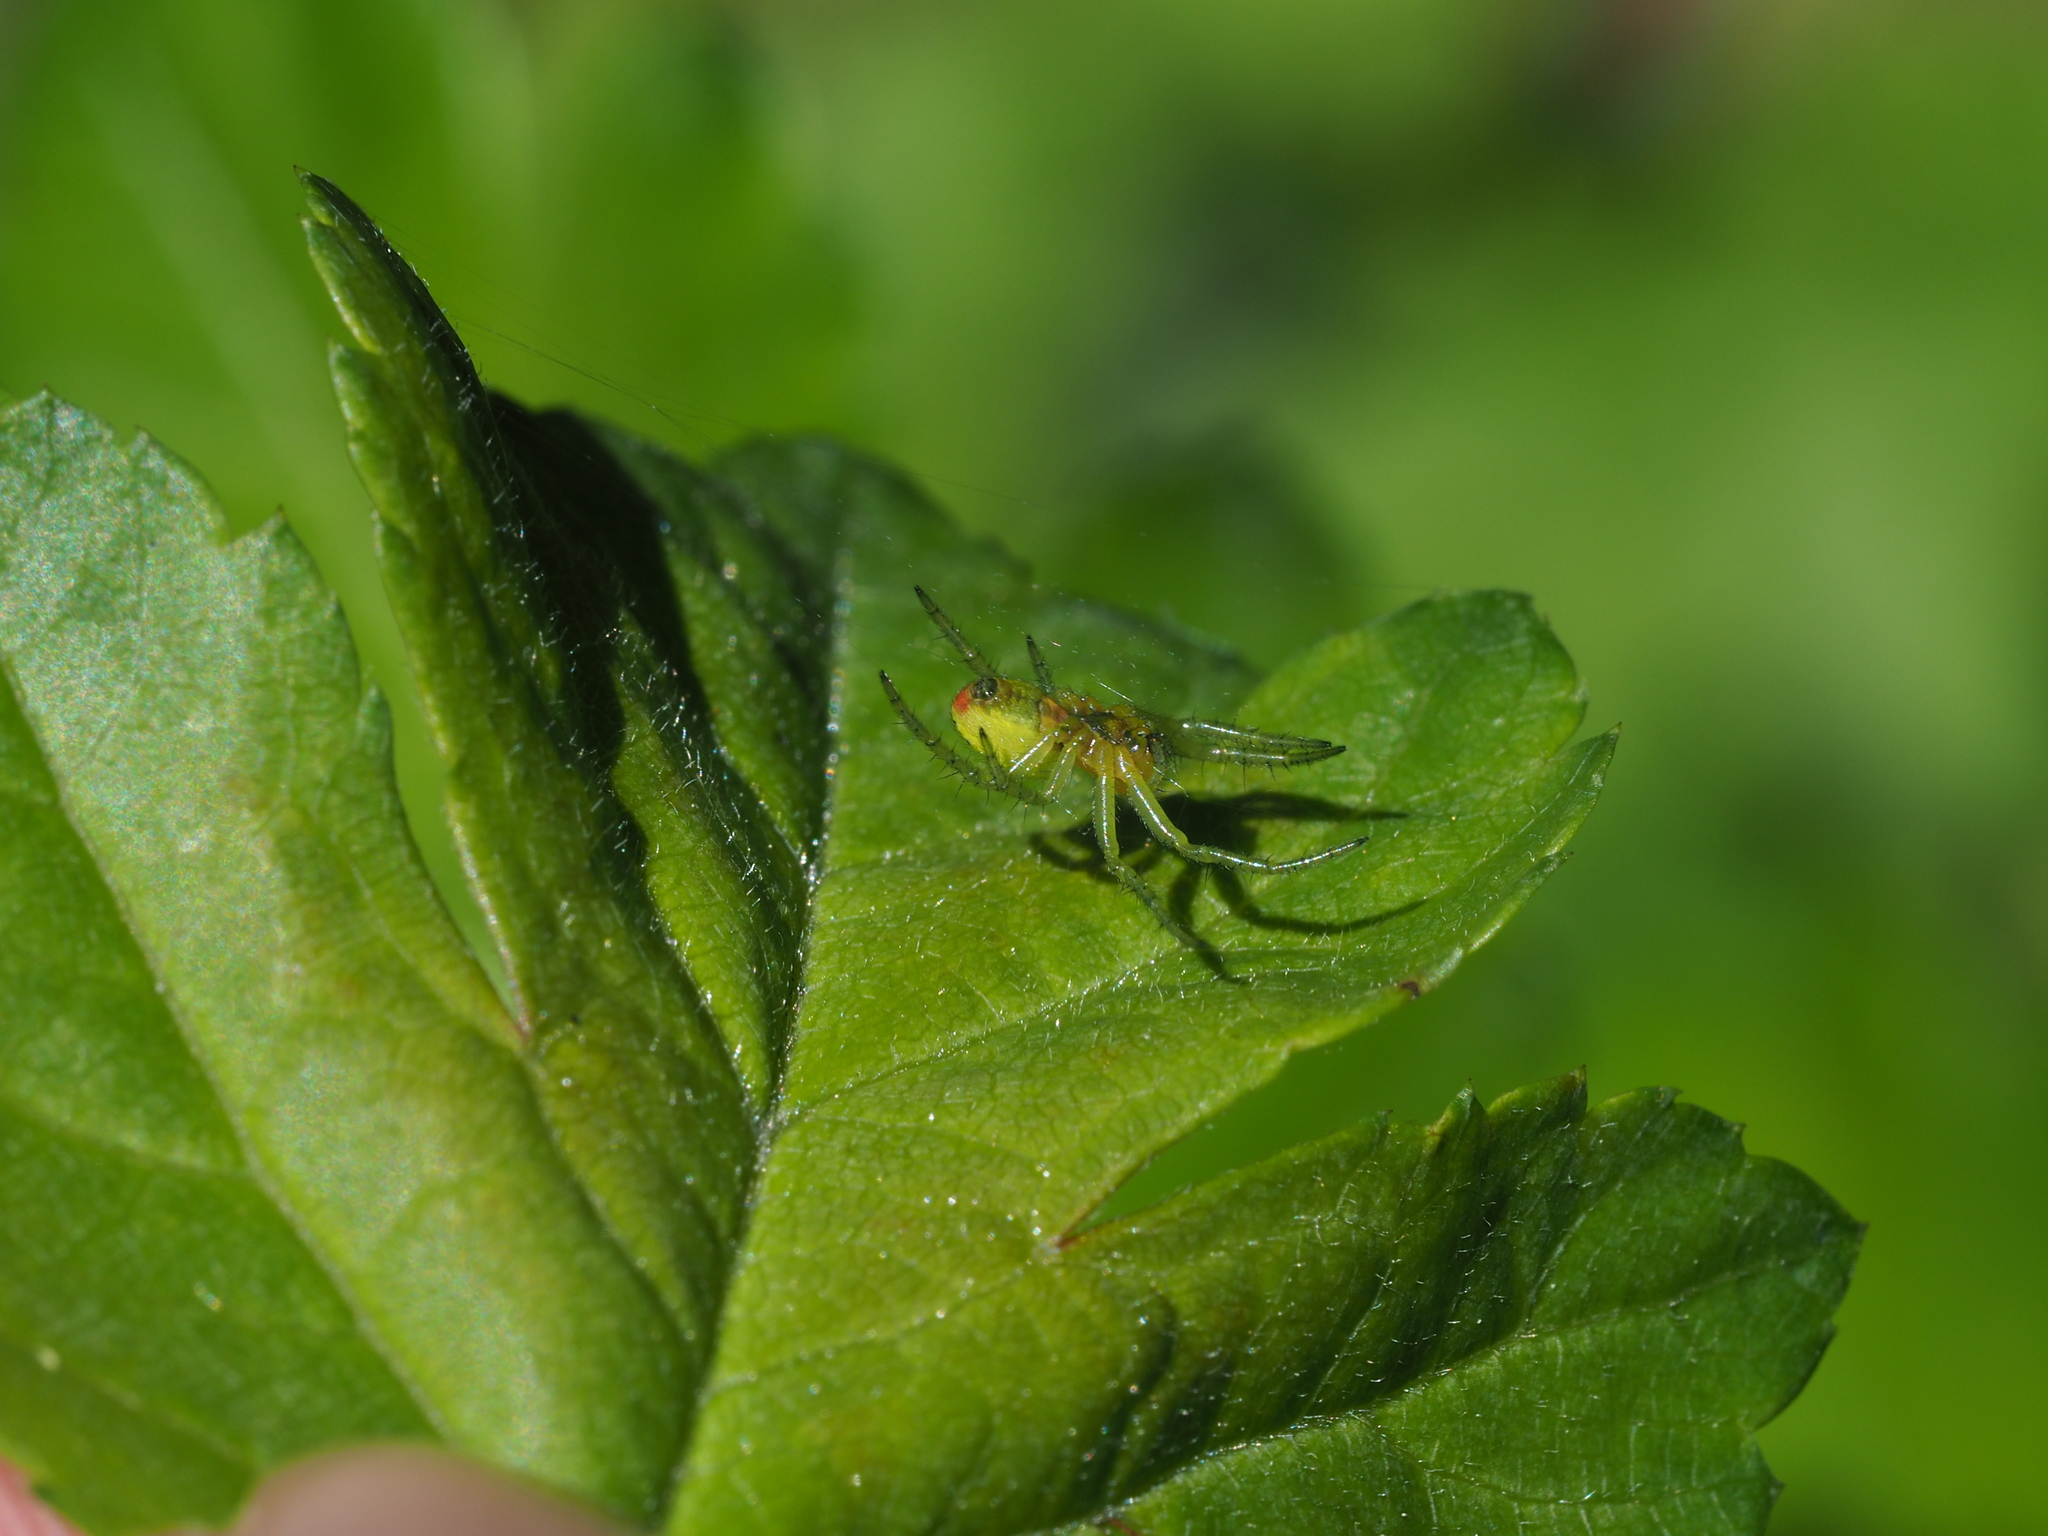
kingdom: Animalia
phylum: Arthropoda
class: Arachnida
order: Araneae
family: Araneidae
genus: Araniella
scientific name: Araniella
